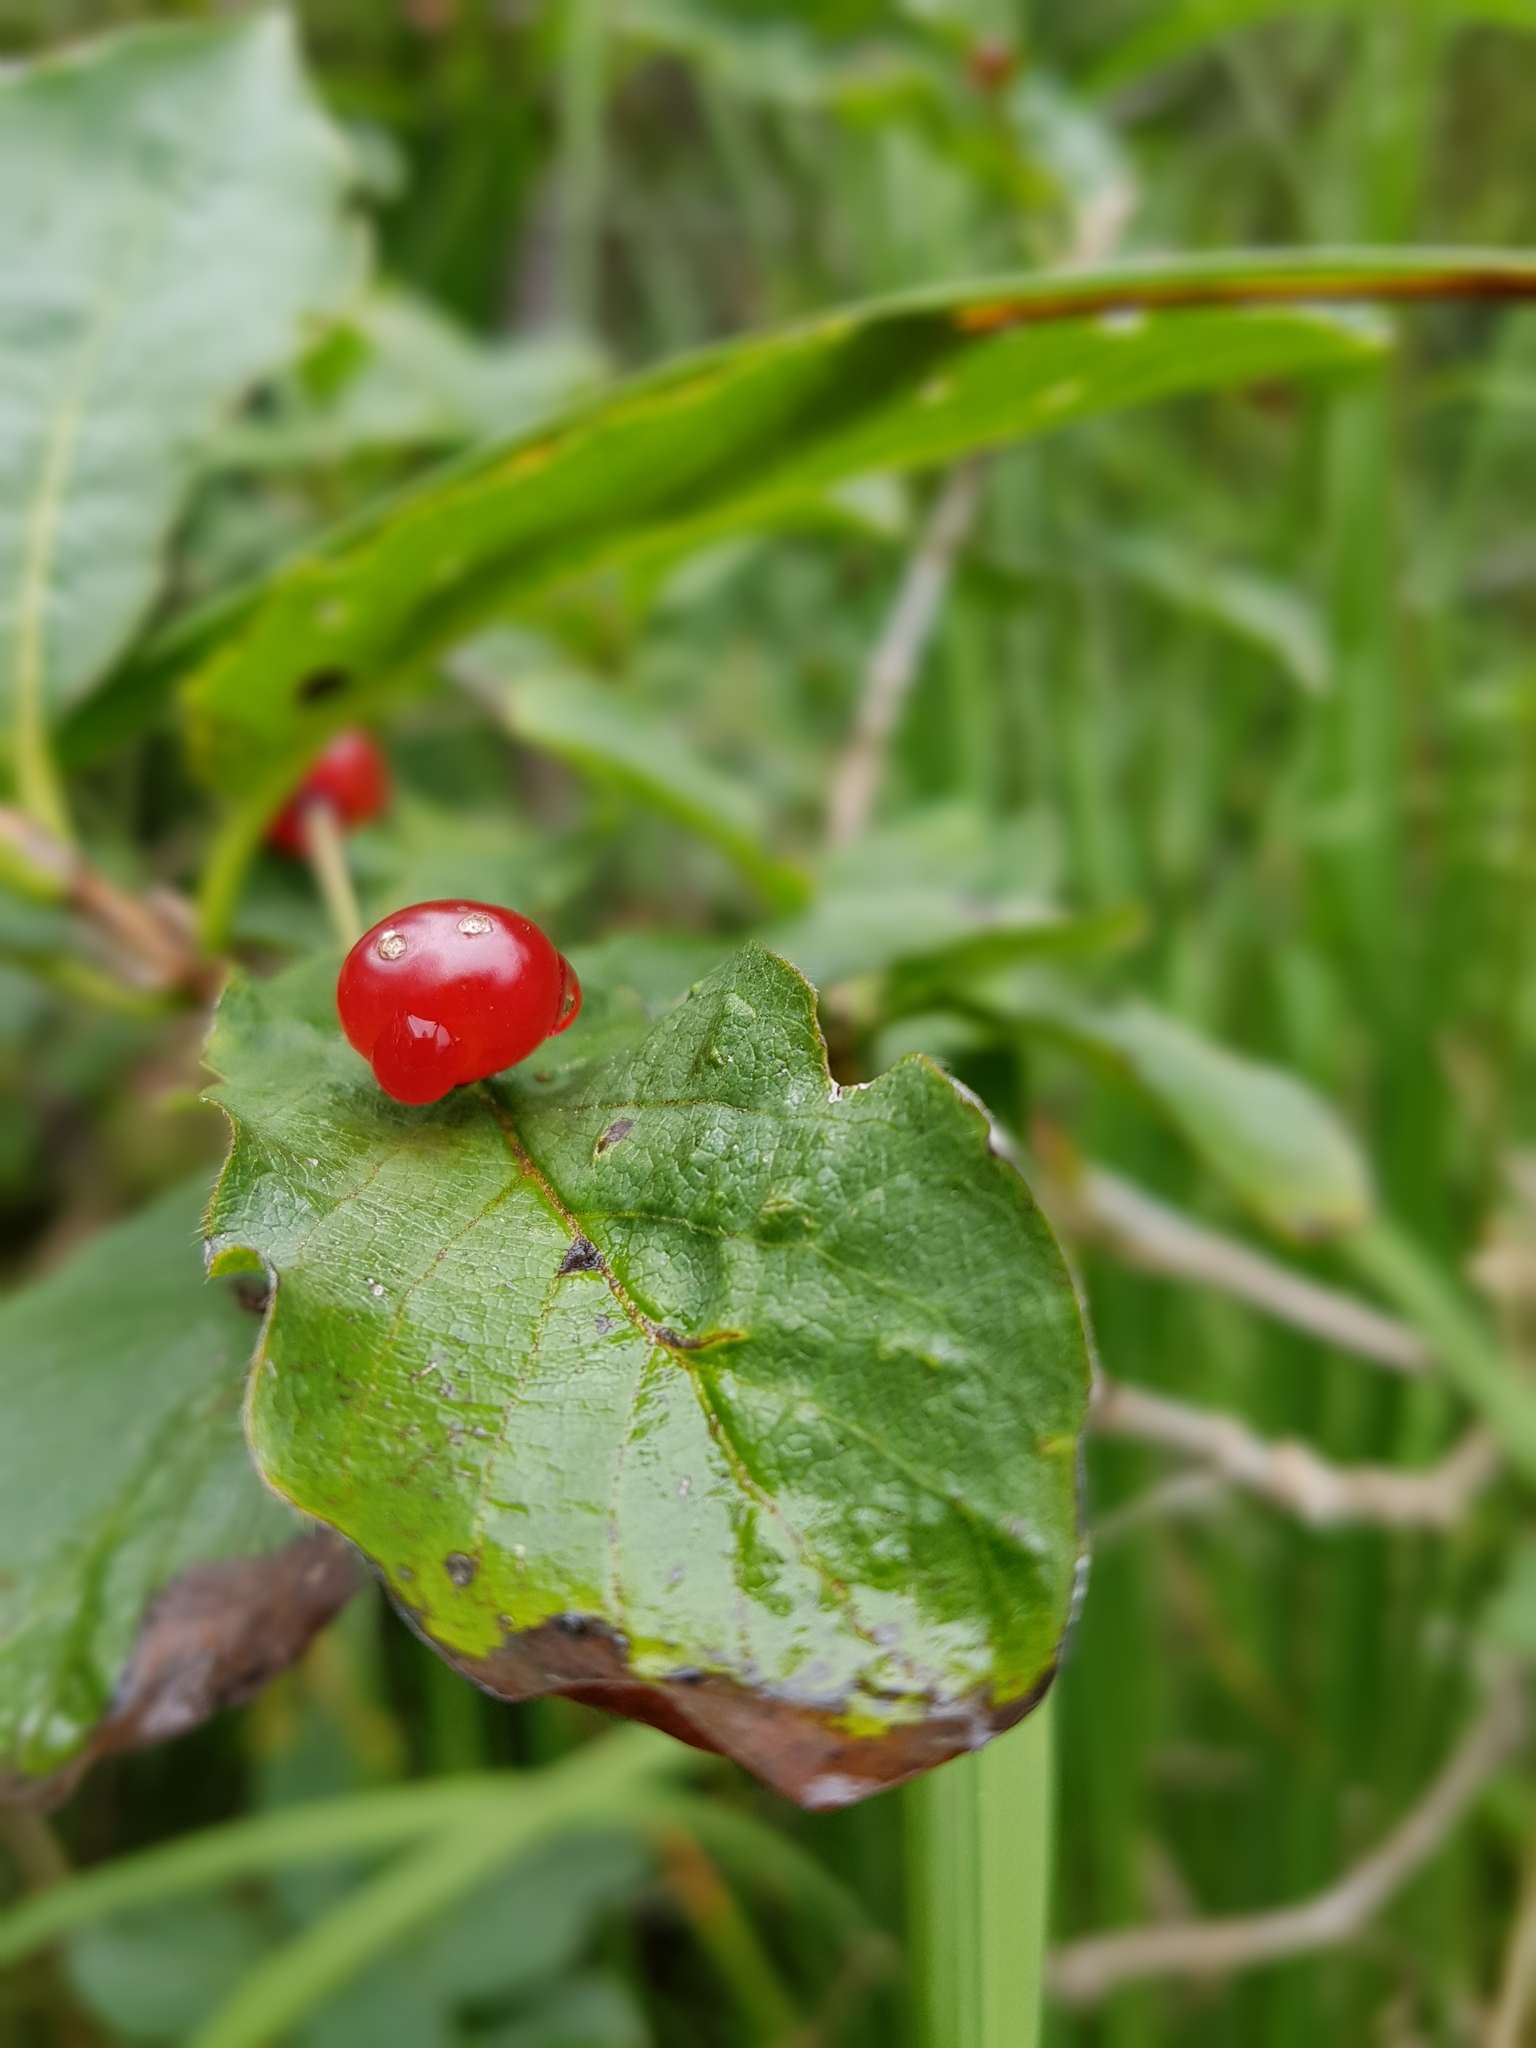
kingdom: Plantae
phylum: Tracheophyta
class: Magnoliopsida
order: Dipsacales
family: Caprifoliaceae
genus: Lonicera
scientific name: Lonicera alpigena
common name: Alpine honeysuckle
